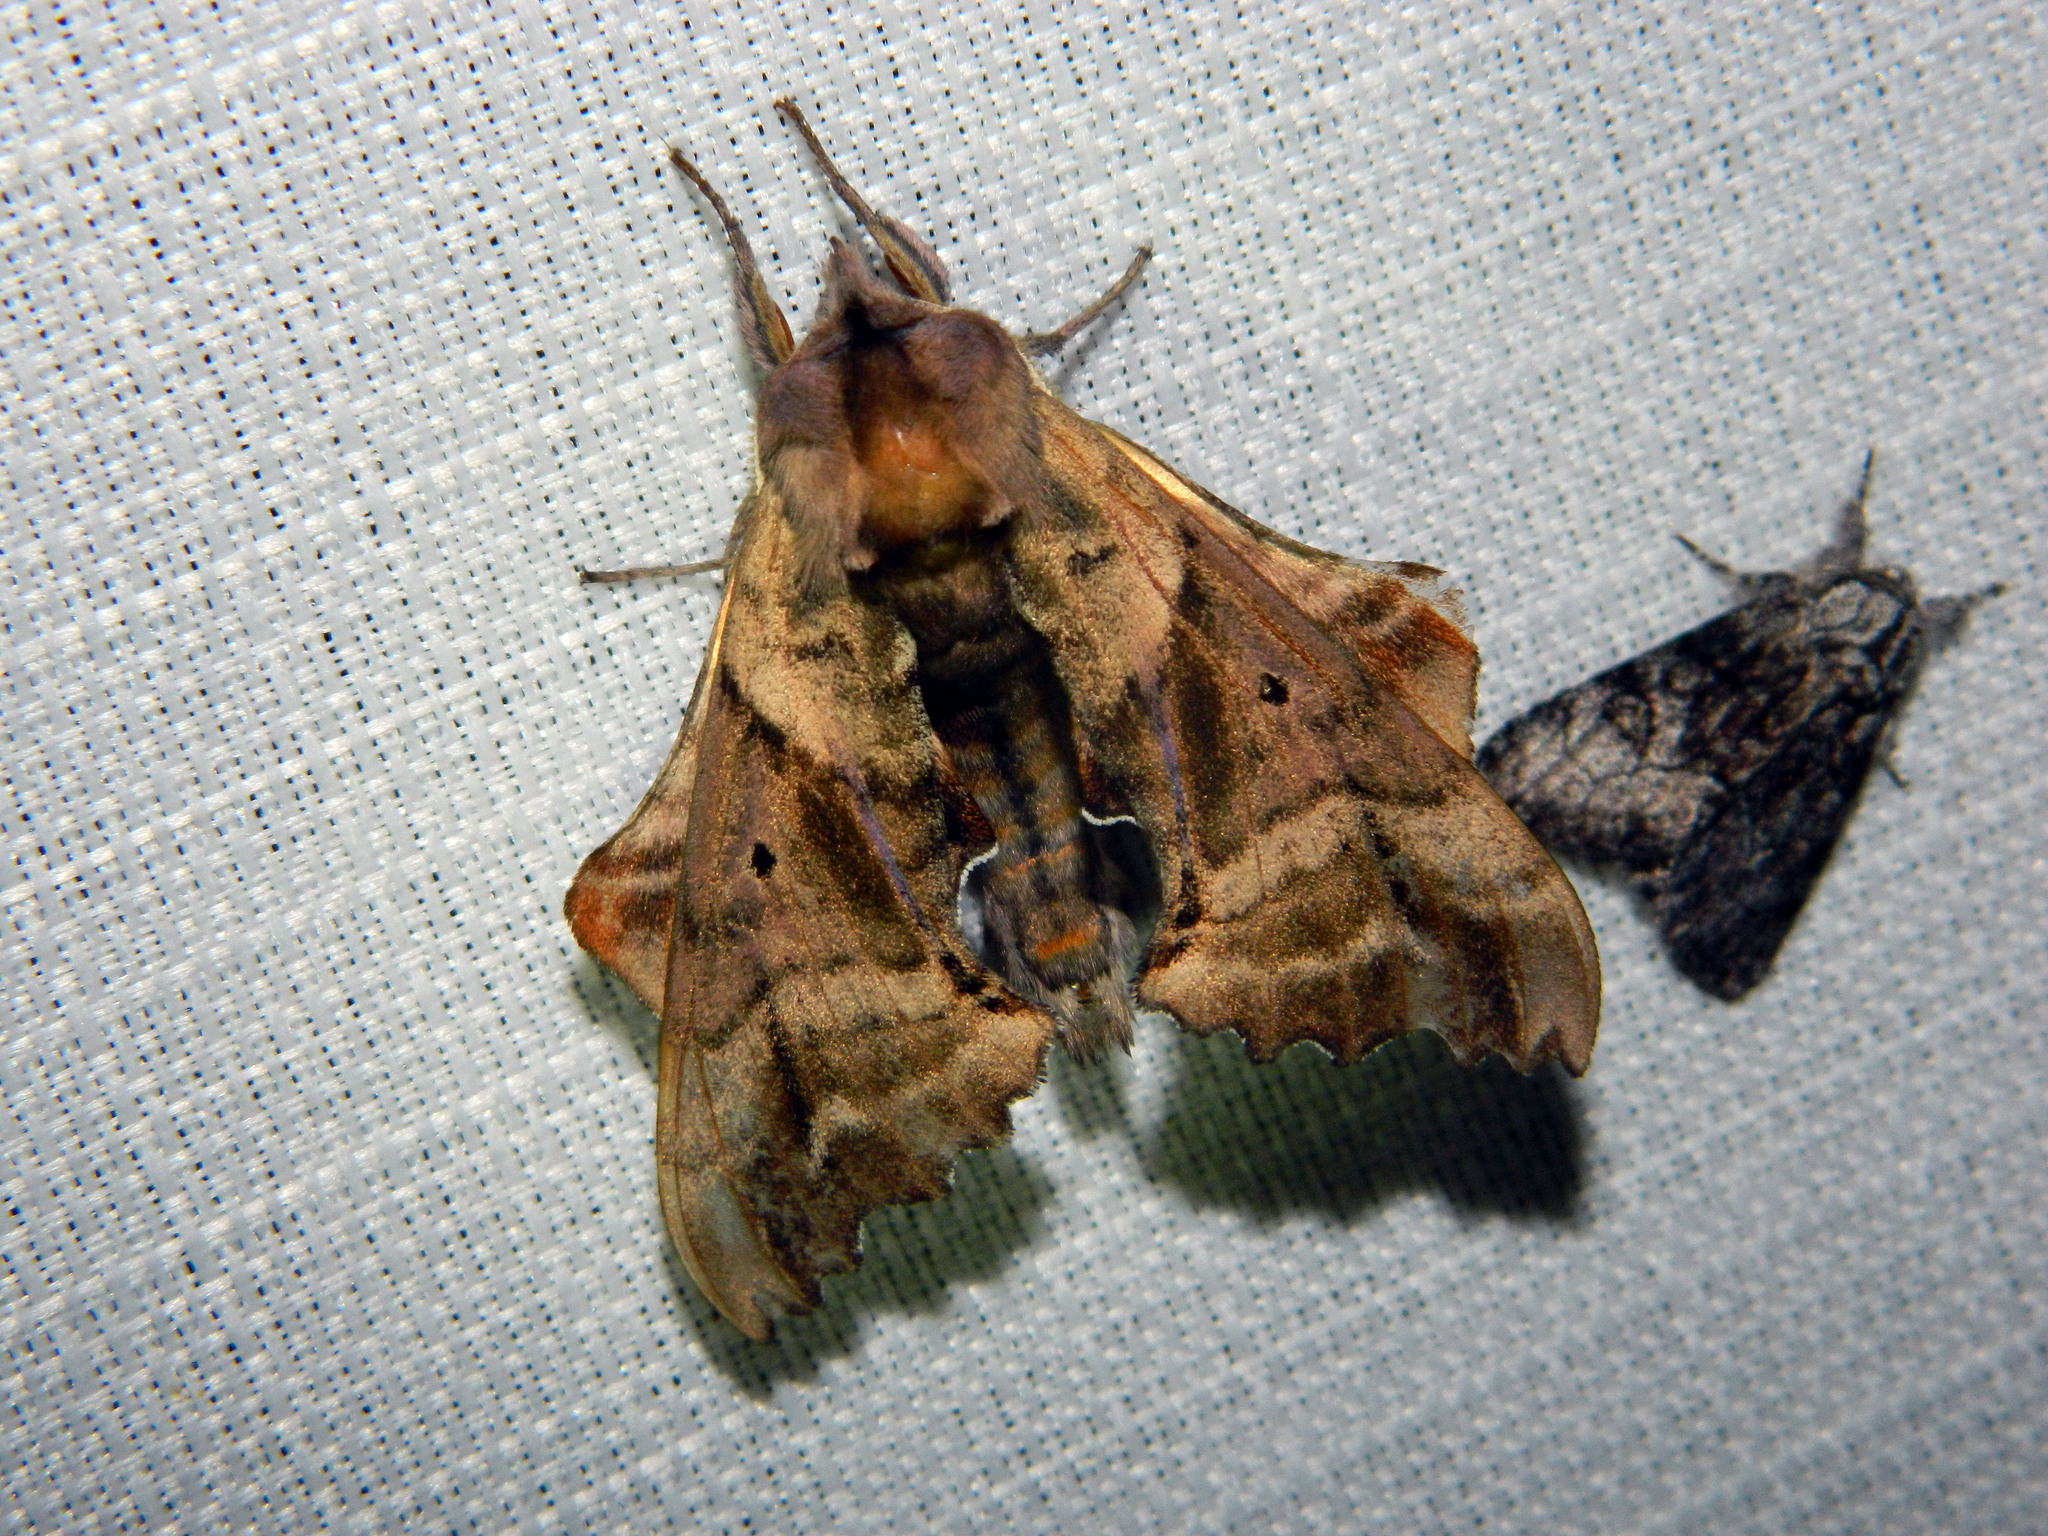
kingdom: Animalia
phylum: Arthropoda
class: Insecta
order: Lepidoptera
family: Sphingidae
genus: Paonias
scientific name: Paonias excaecata
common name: Blind-eyed sphinx
